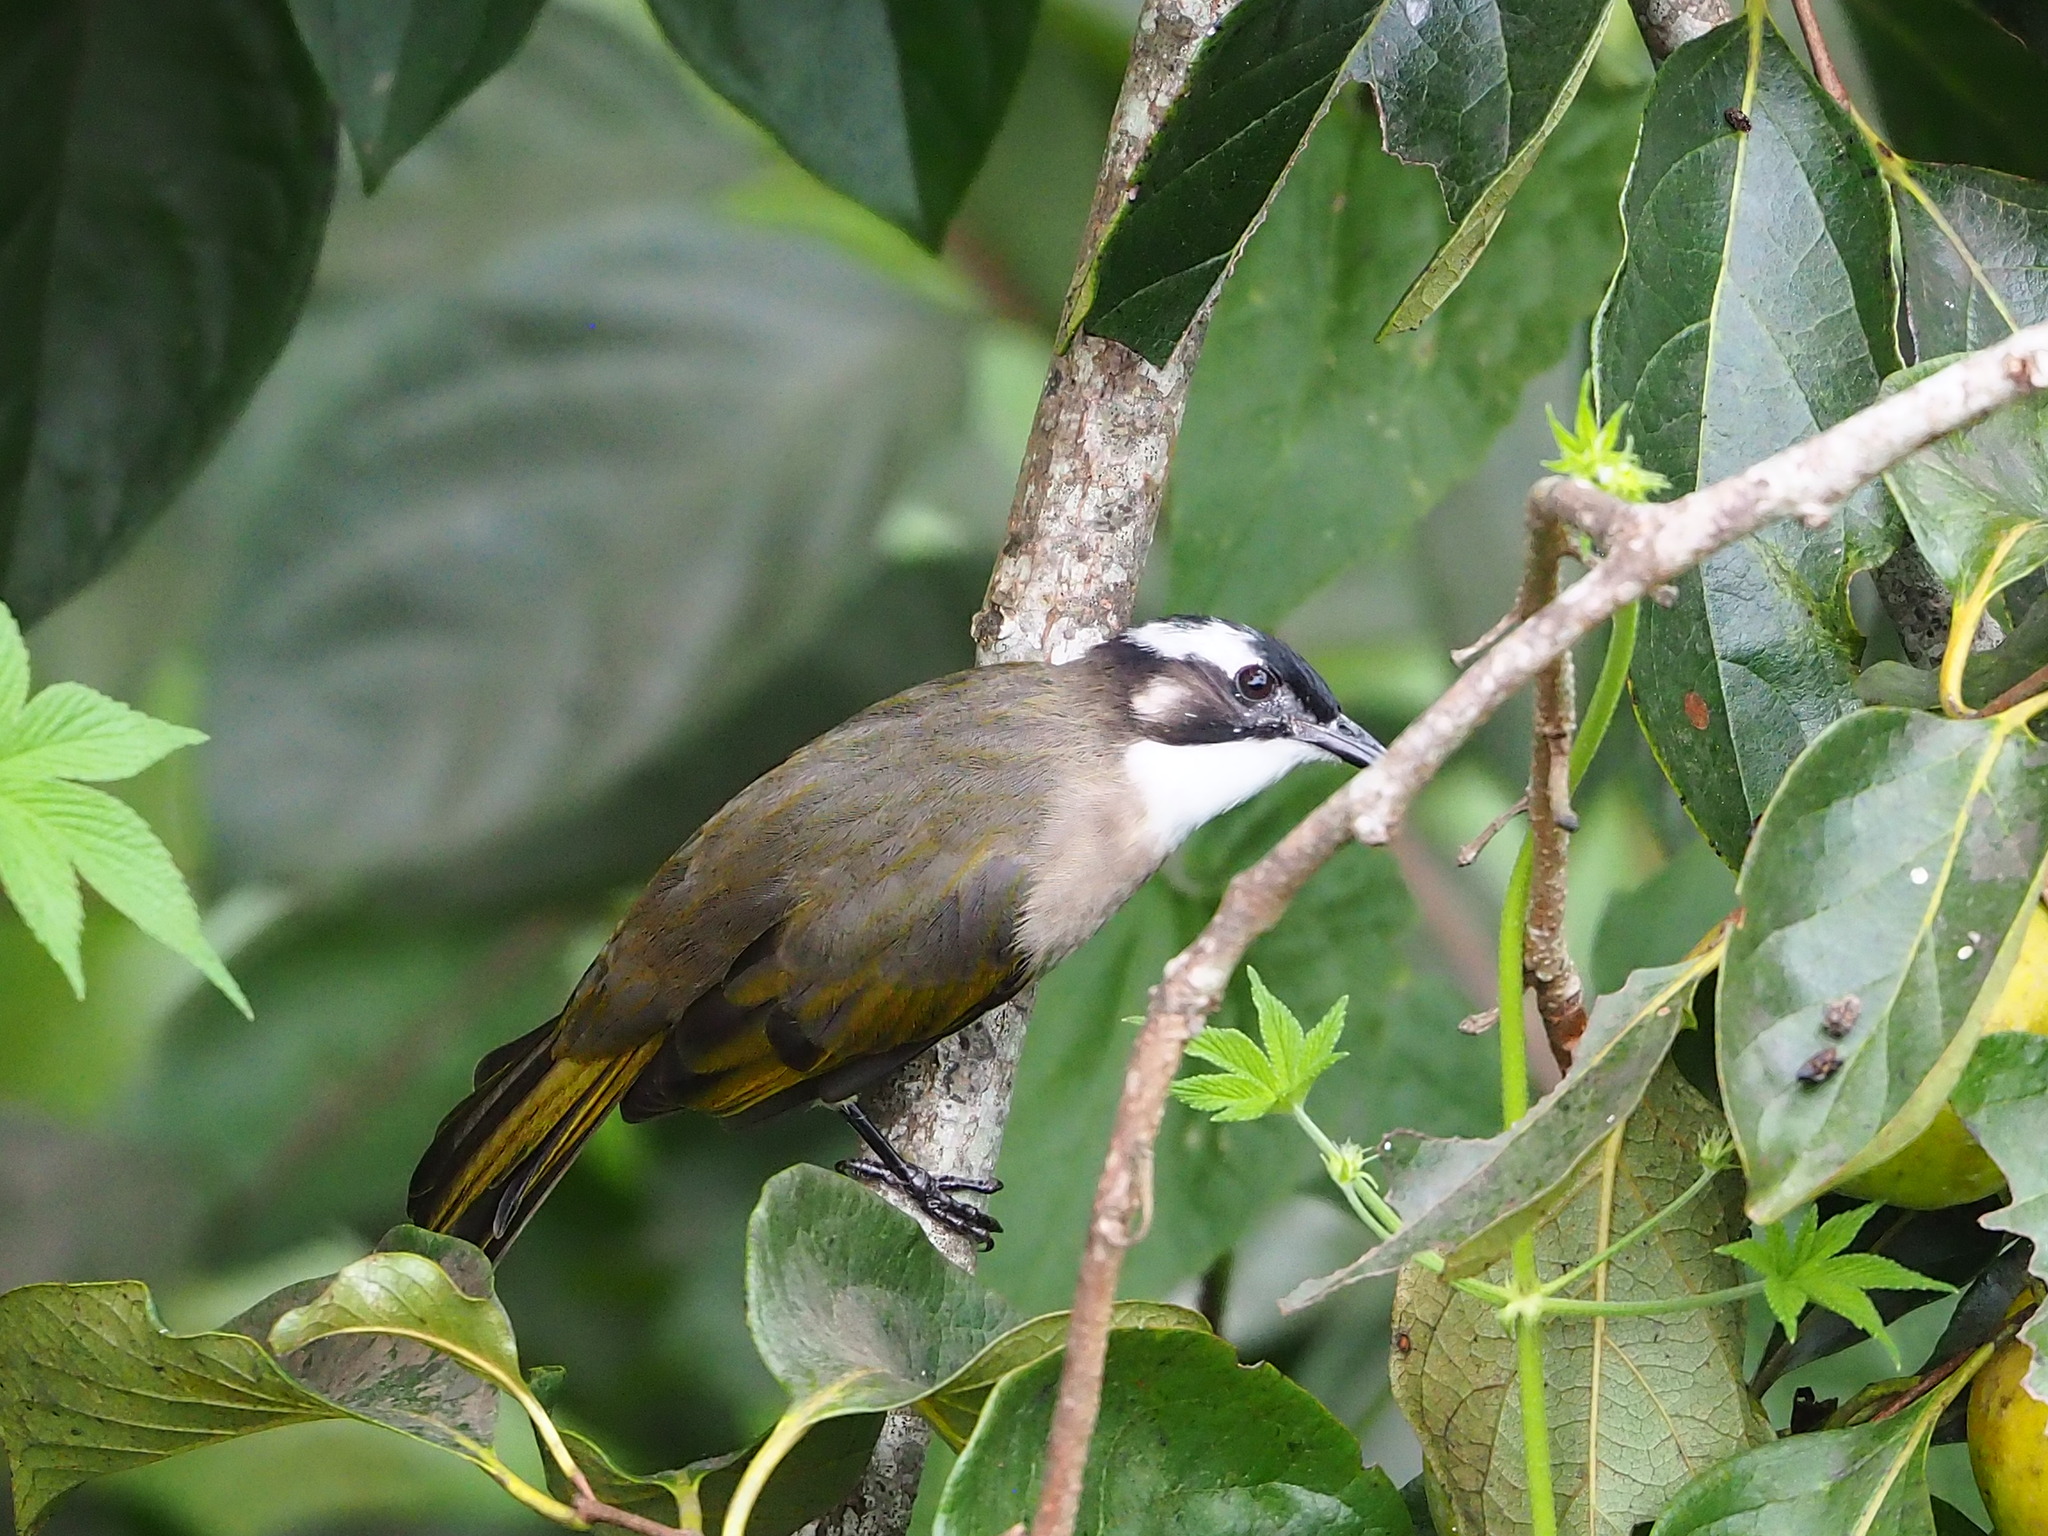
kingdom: Animalia
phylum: Chordata
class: Aves
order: Passeriformes
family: Pycnonotidae
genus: Pycnonotus
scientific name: Pycnonotus sinensis
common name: Light-vented bulbul
